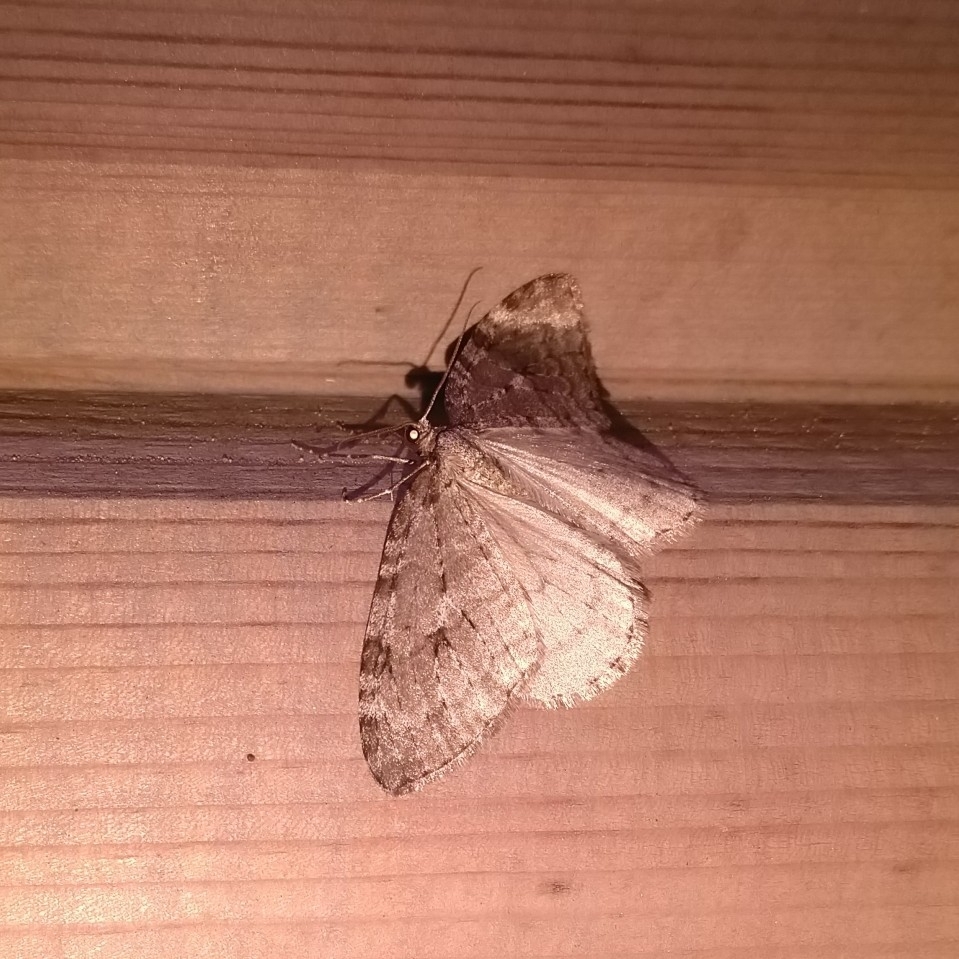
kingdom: Animalia
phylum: Arthropoda
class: Insecta
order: Lepidoptera
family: Geometridae
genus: Epirrita
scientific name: Epirrita autumnata
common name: Autumnal moth
